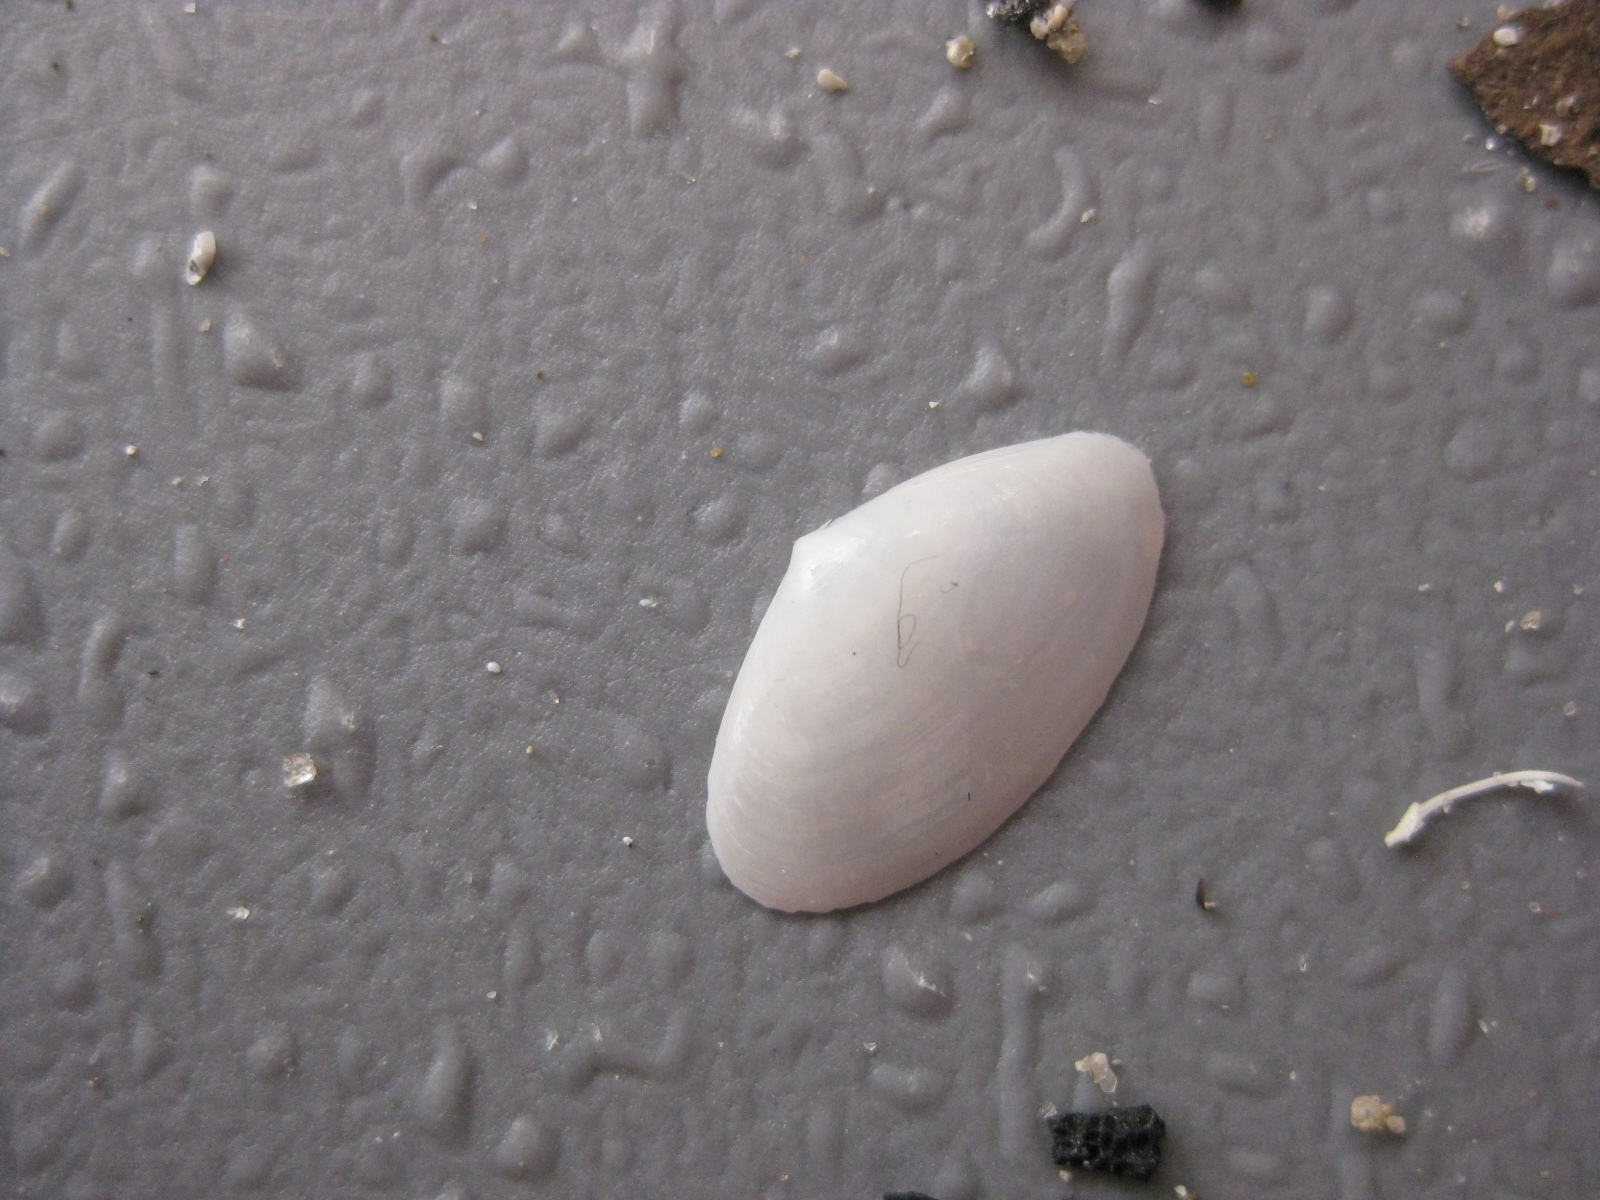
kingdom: Animalia
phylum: Mollusca
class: Bivalvia
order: Venerida
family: Mactridae
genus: Scalpomactra
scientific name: Scalpomactra scalpellum
